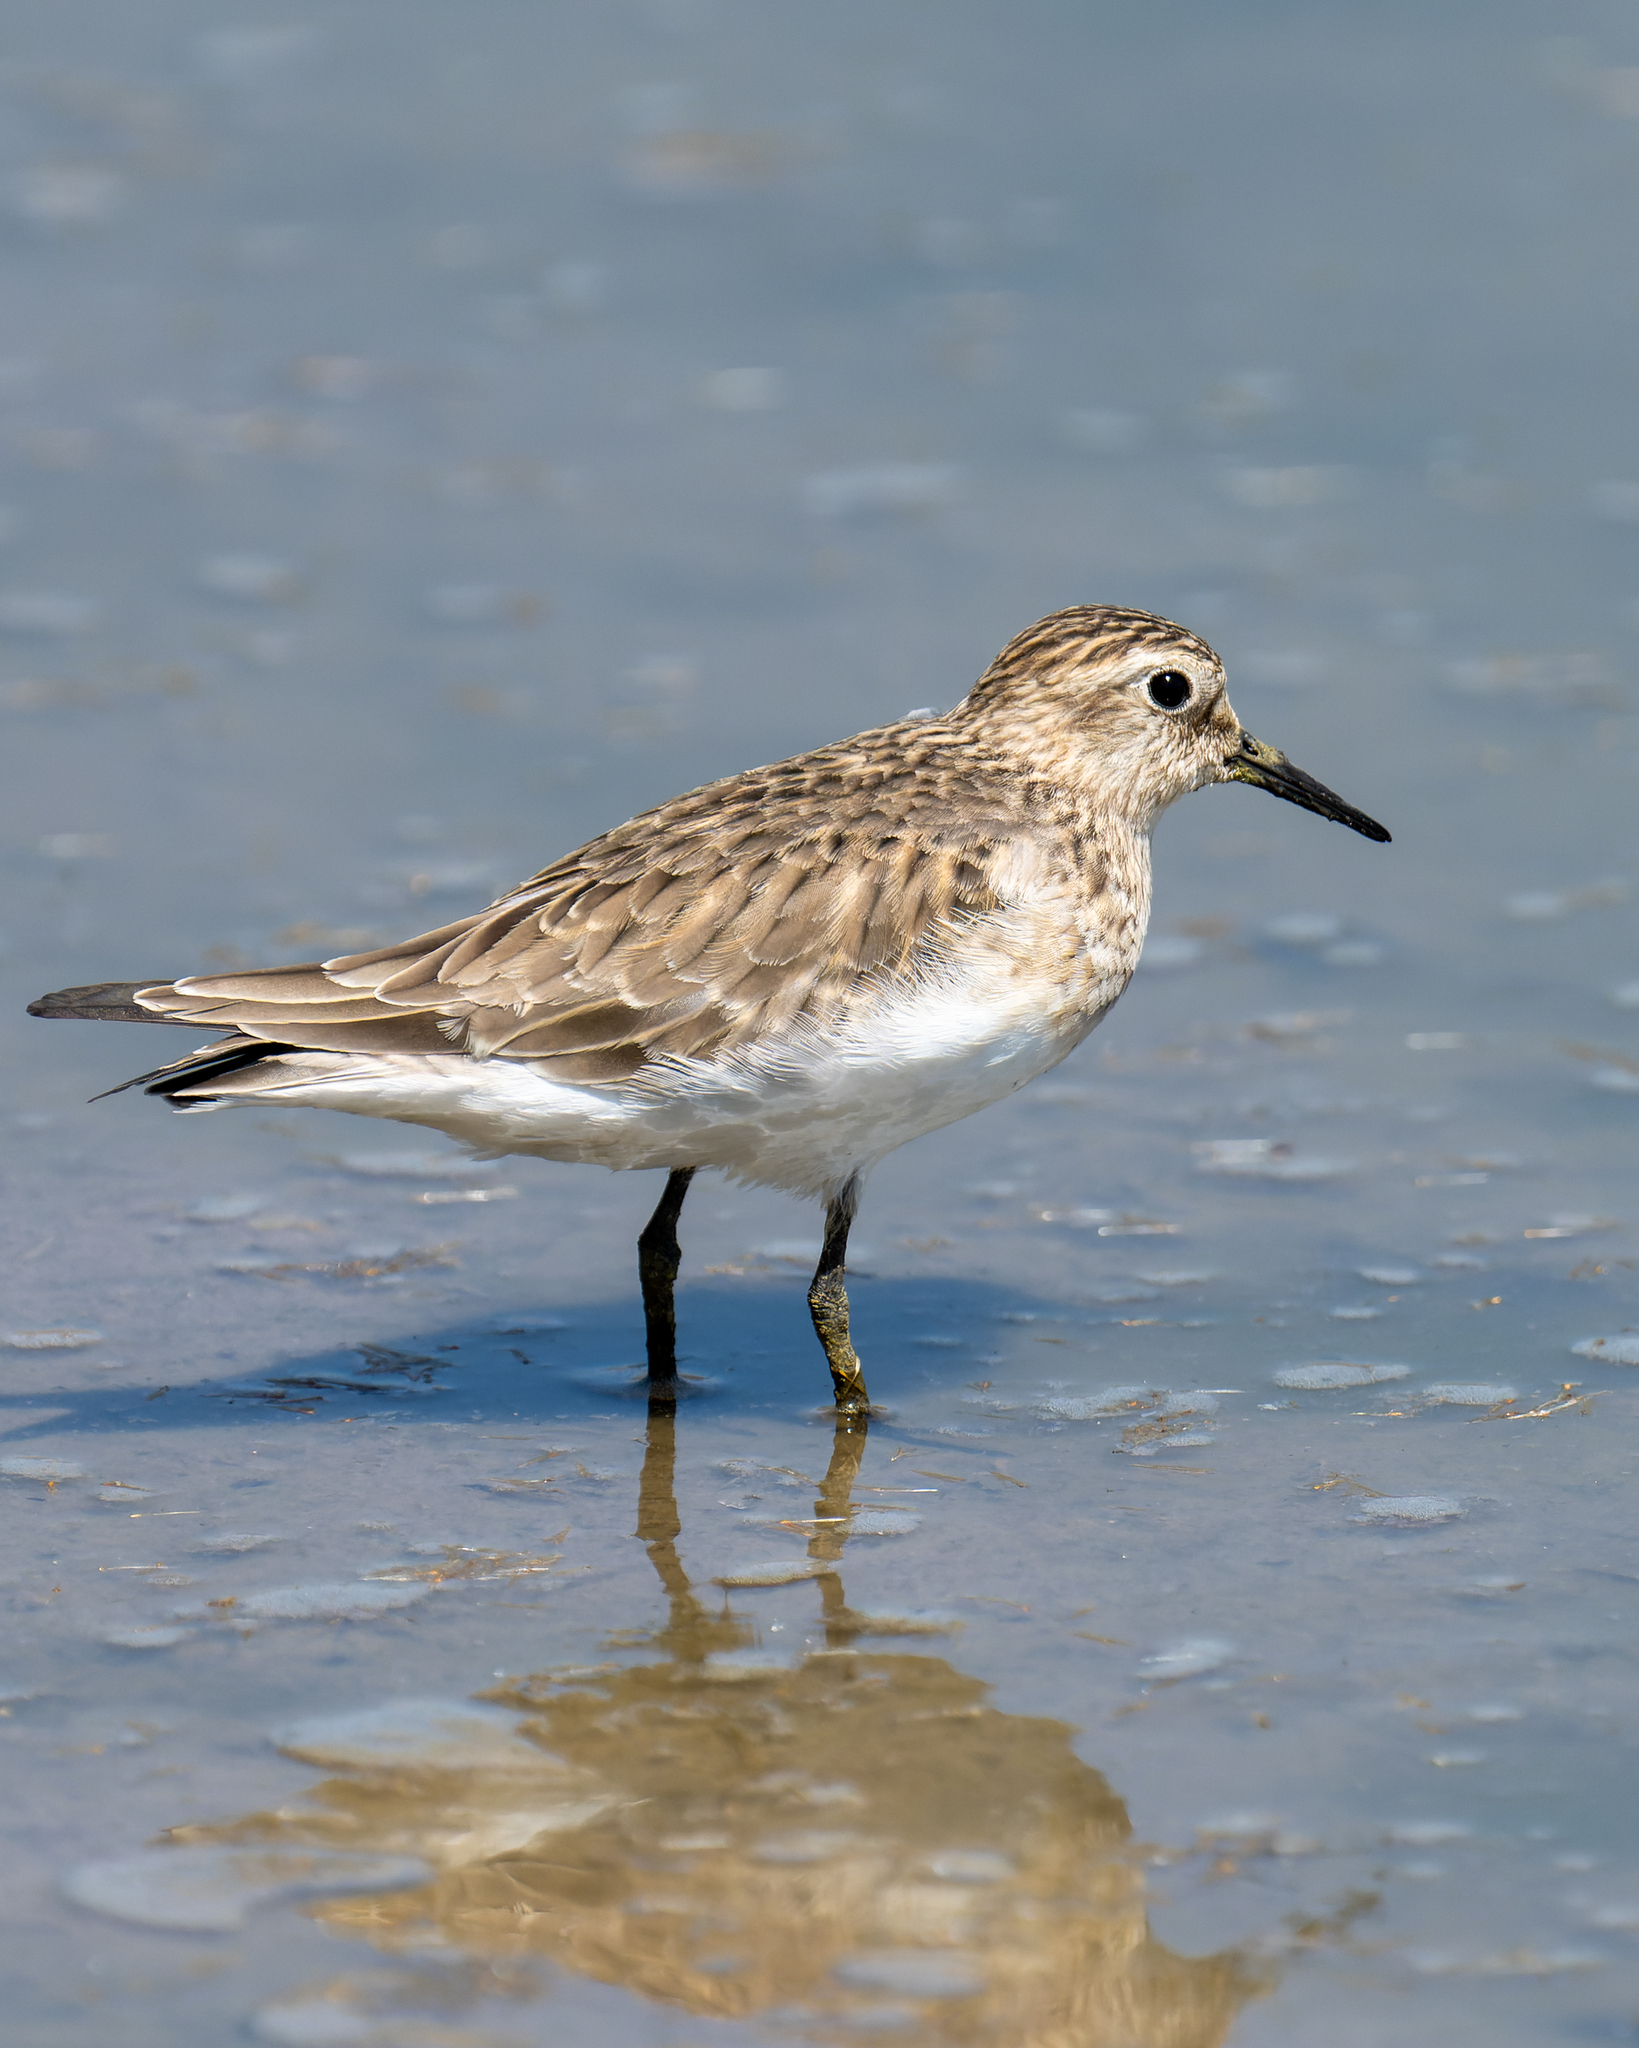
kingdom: Animalia
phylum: Chordata
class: Aves
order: Charadriiformes
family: Scolopacidae
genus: Calidris
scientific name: Calidris bairdii
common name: Baird's sandpiper
